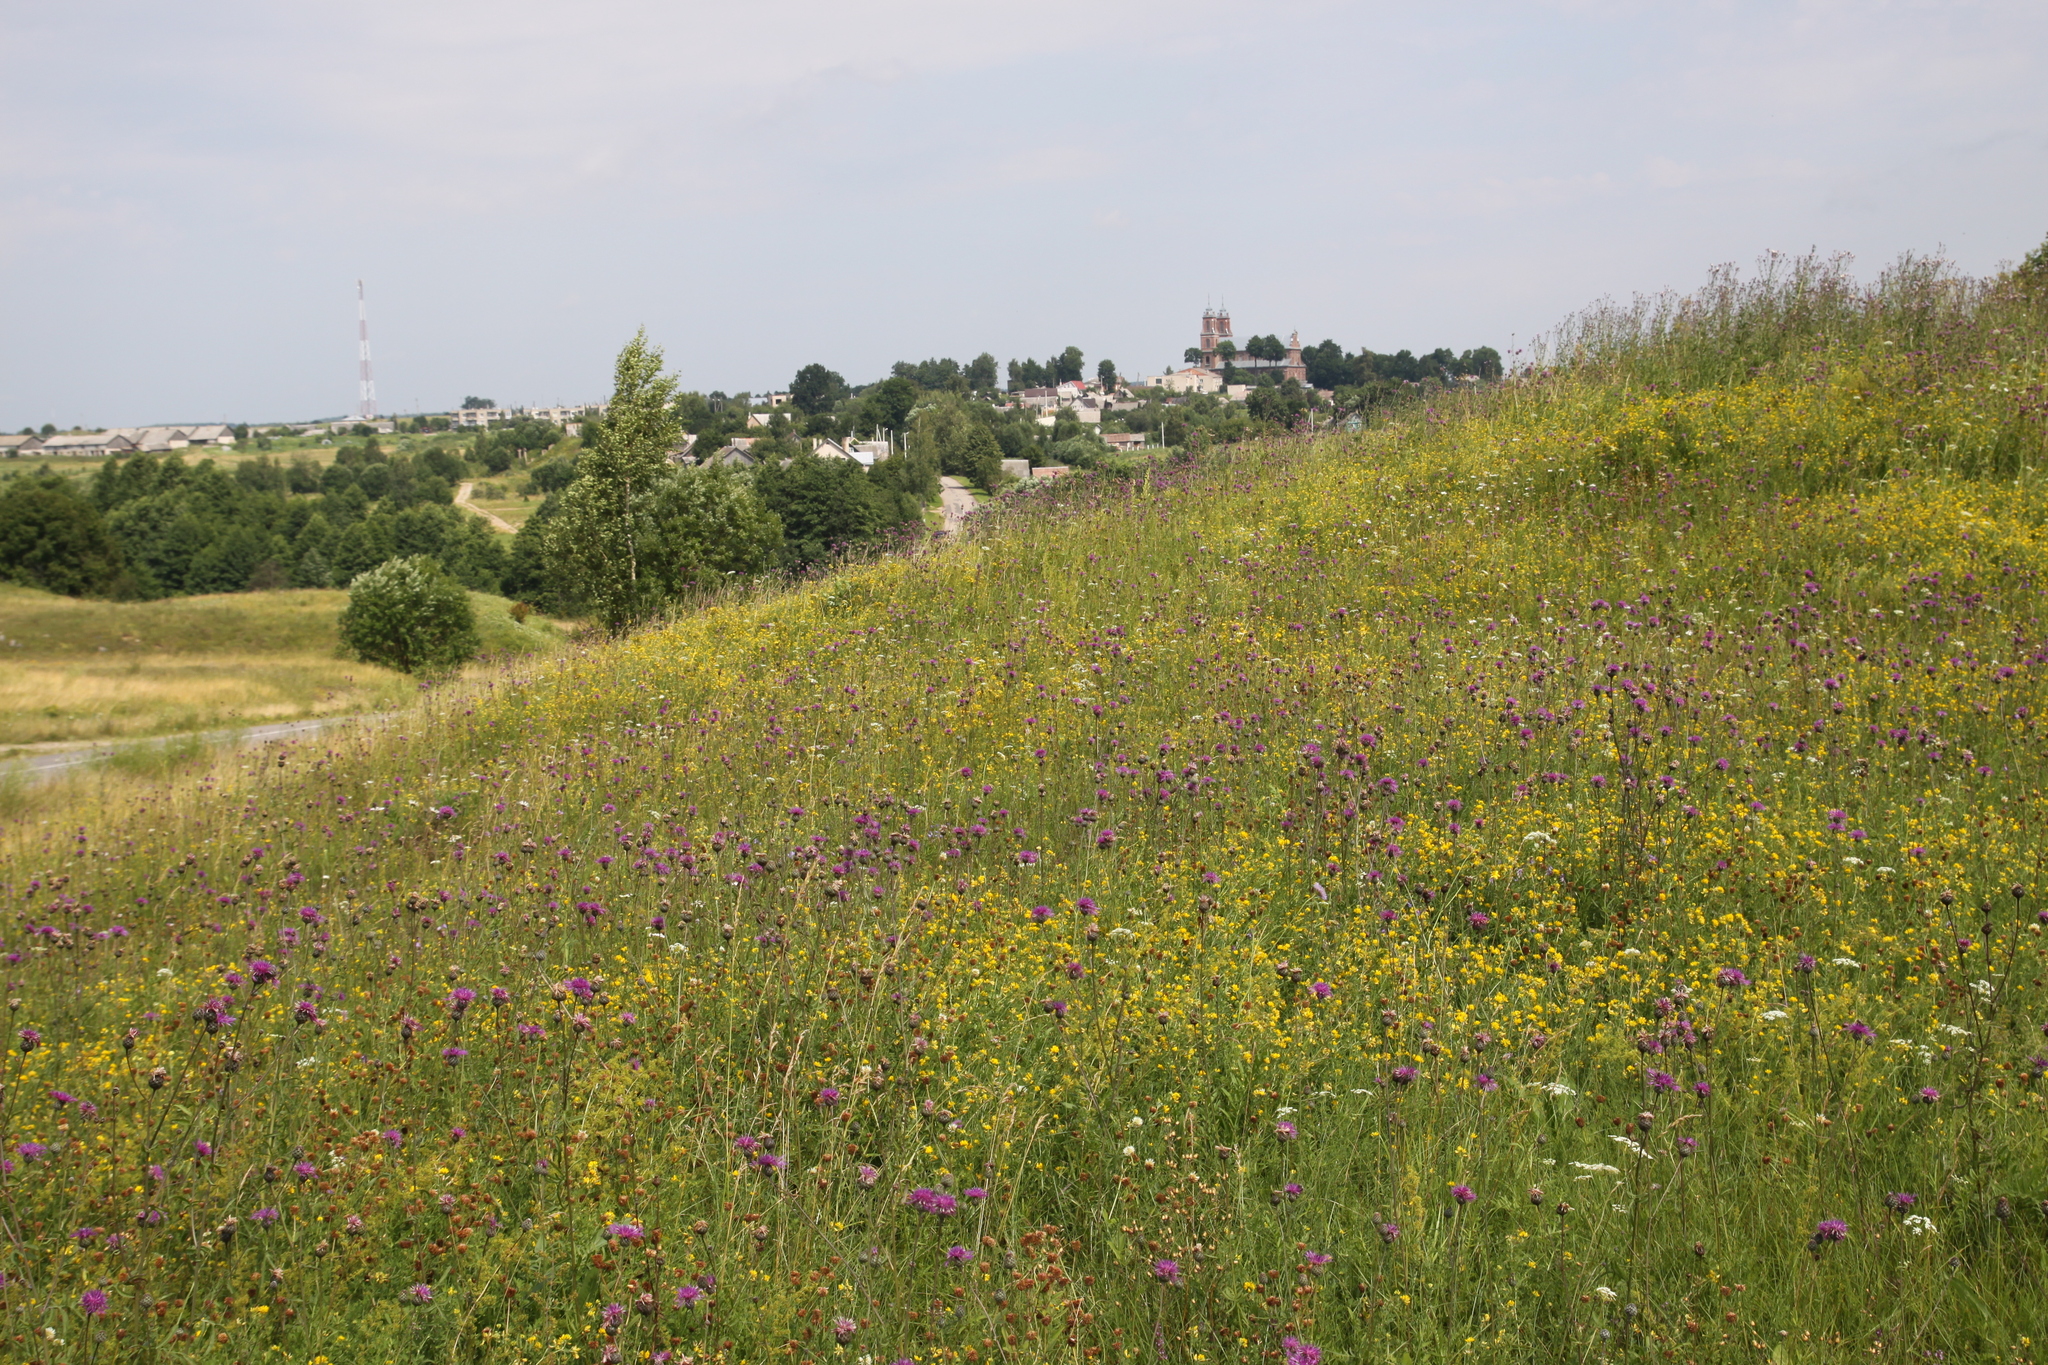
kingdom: Plantae
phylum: Tracheophyta
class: Magnoliopsida
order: Asterales
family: Asteraceae
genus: Centaurea
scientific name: Centaurea scabiosa
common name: Greater knapweed
